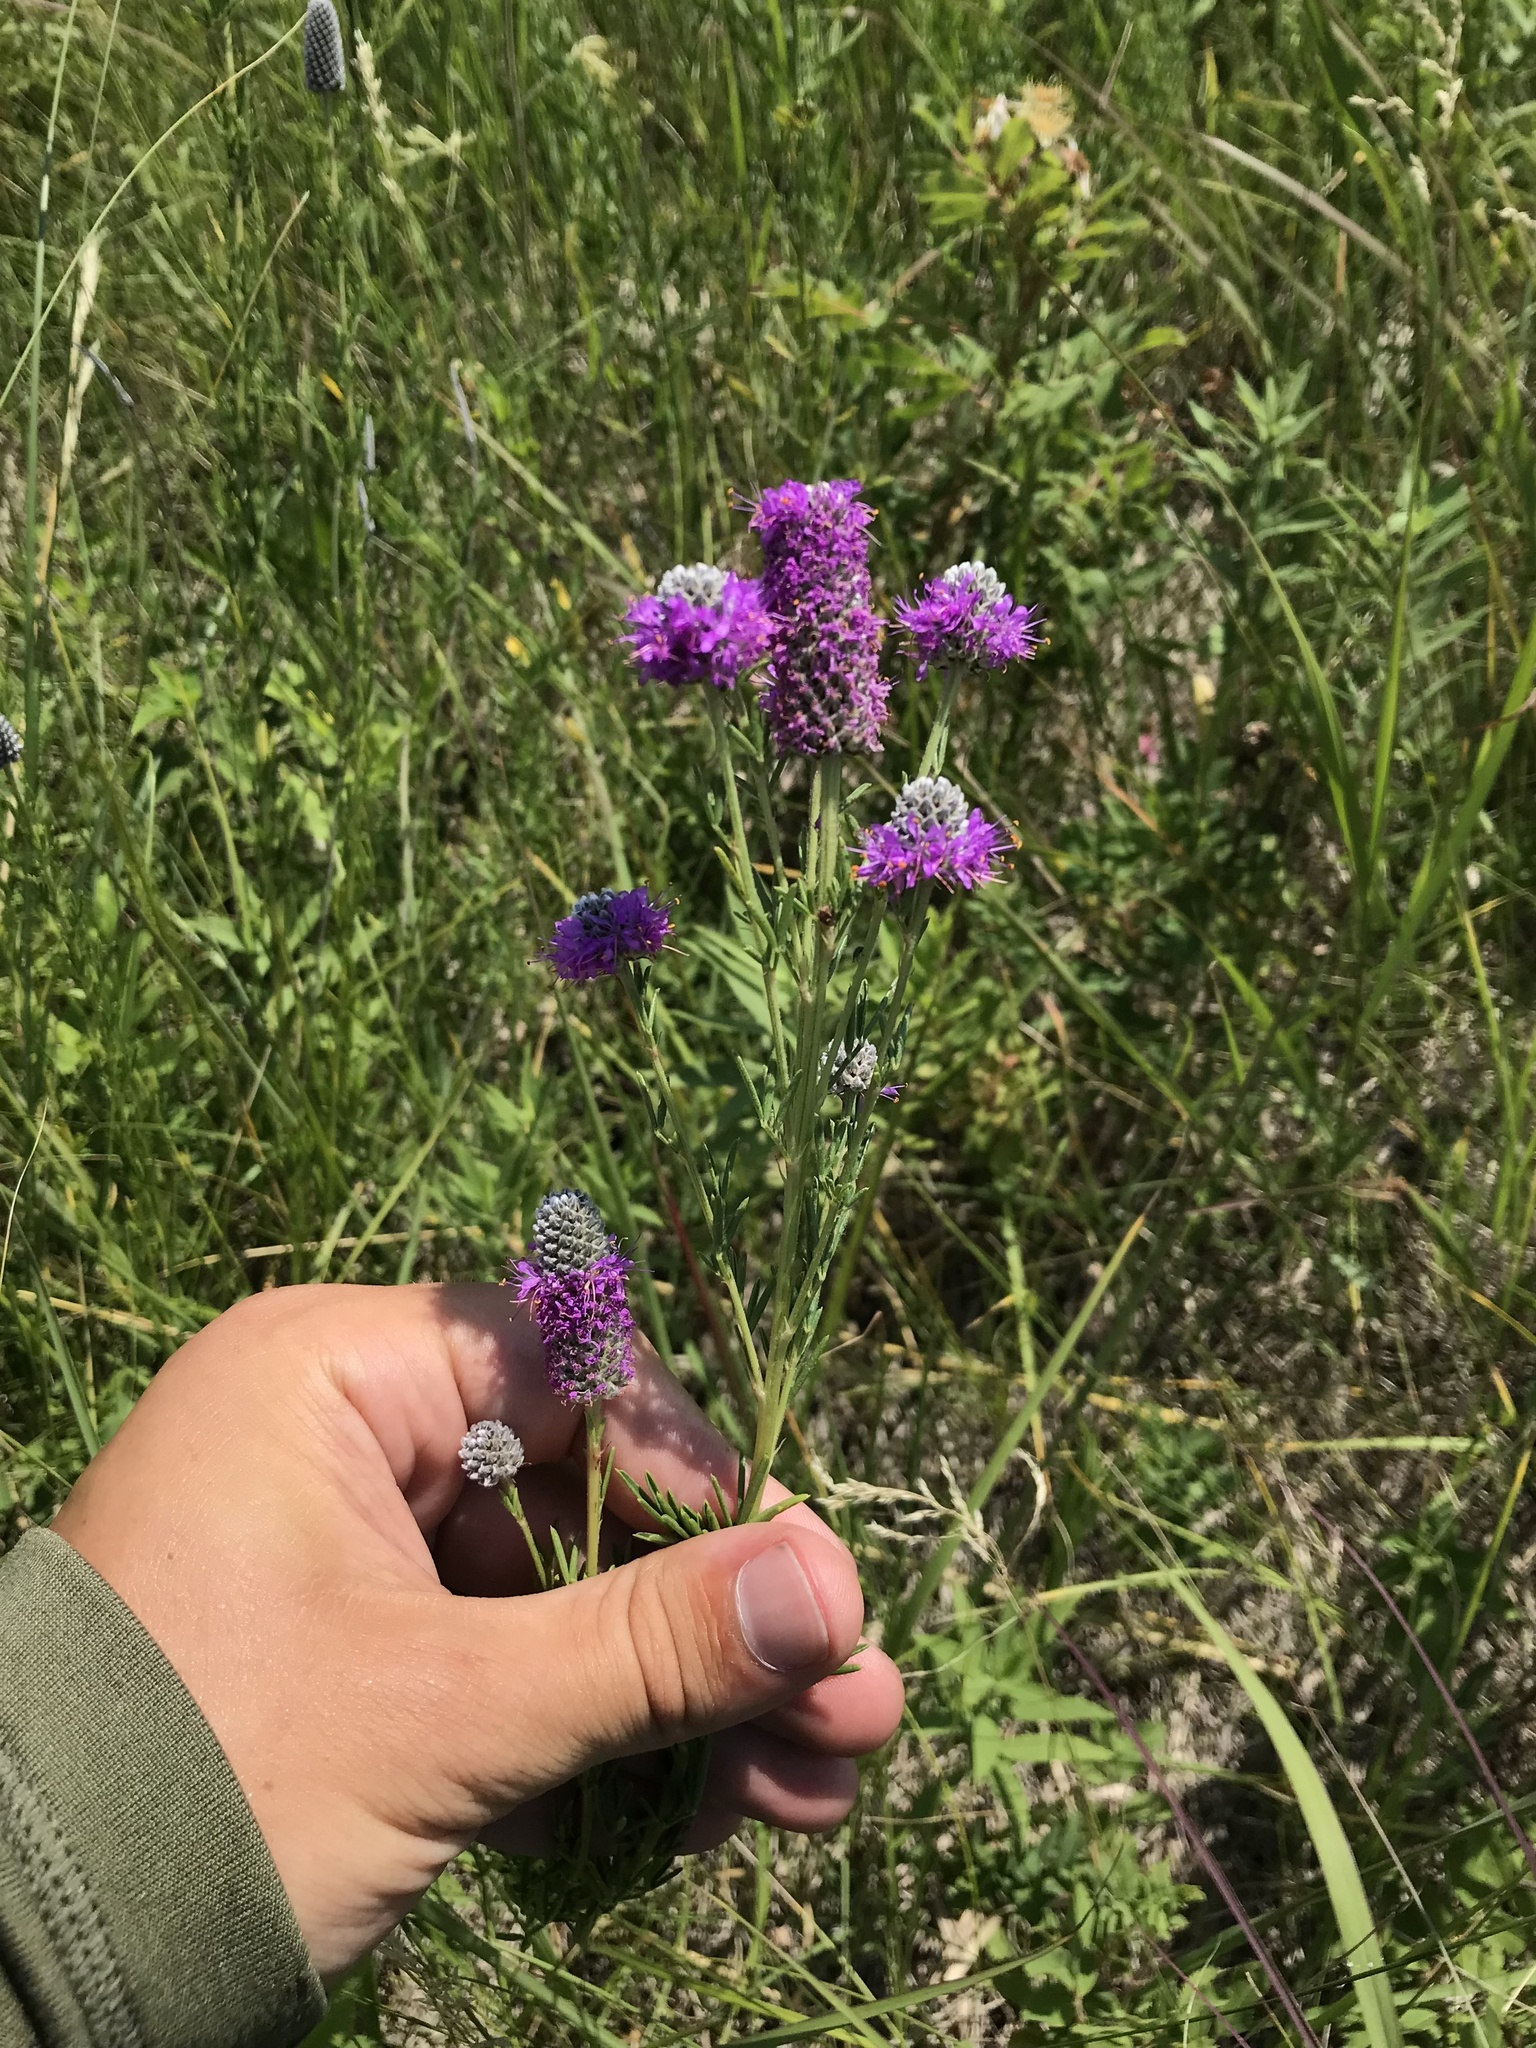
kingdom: Plantae
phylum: Tracheophyta
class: Magnoliopsida
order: Fabales
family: Fabaceae
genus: Dalea
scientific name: Dalea purpurea
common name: Purple prairie-clover
